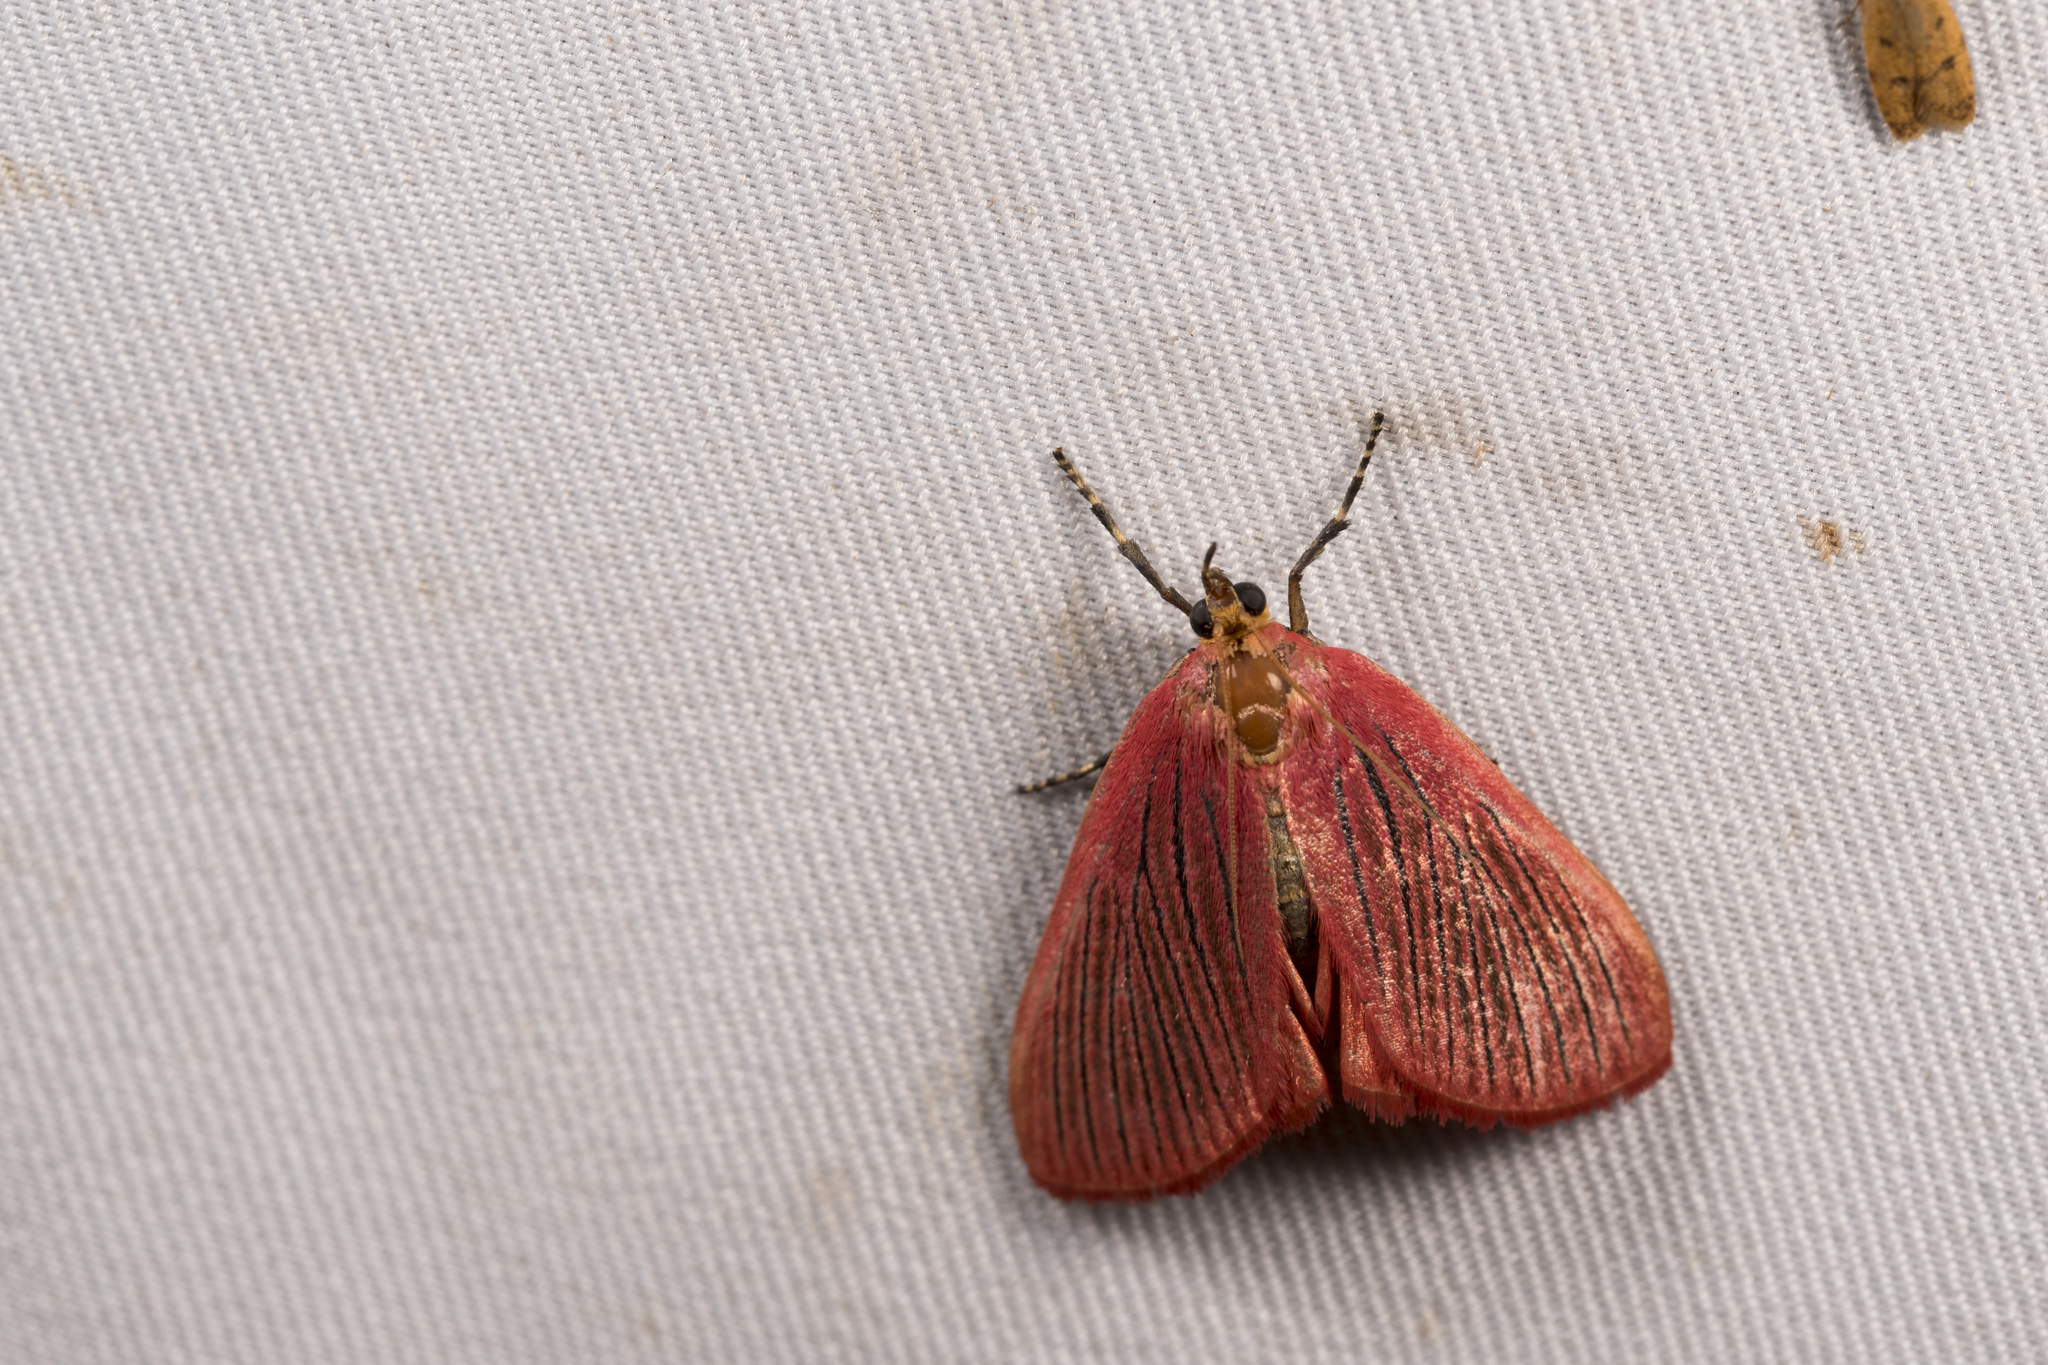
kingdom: Animalia
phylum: Arthropoda
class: Insecta
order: Lepidoptera
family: Pyralidae
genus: Arctioblepsis
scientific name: Arctioblepsis rubida
